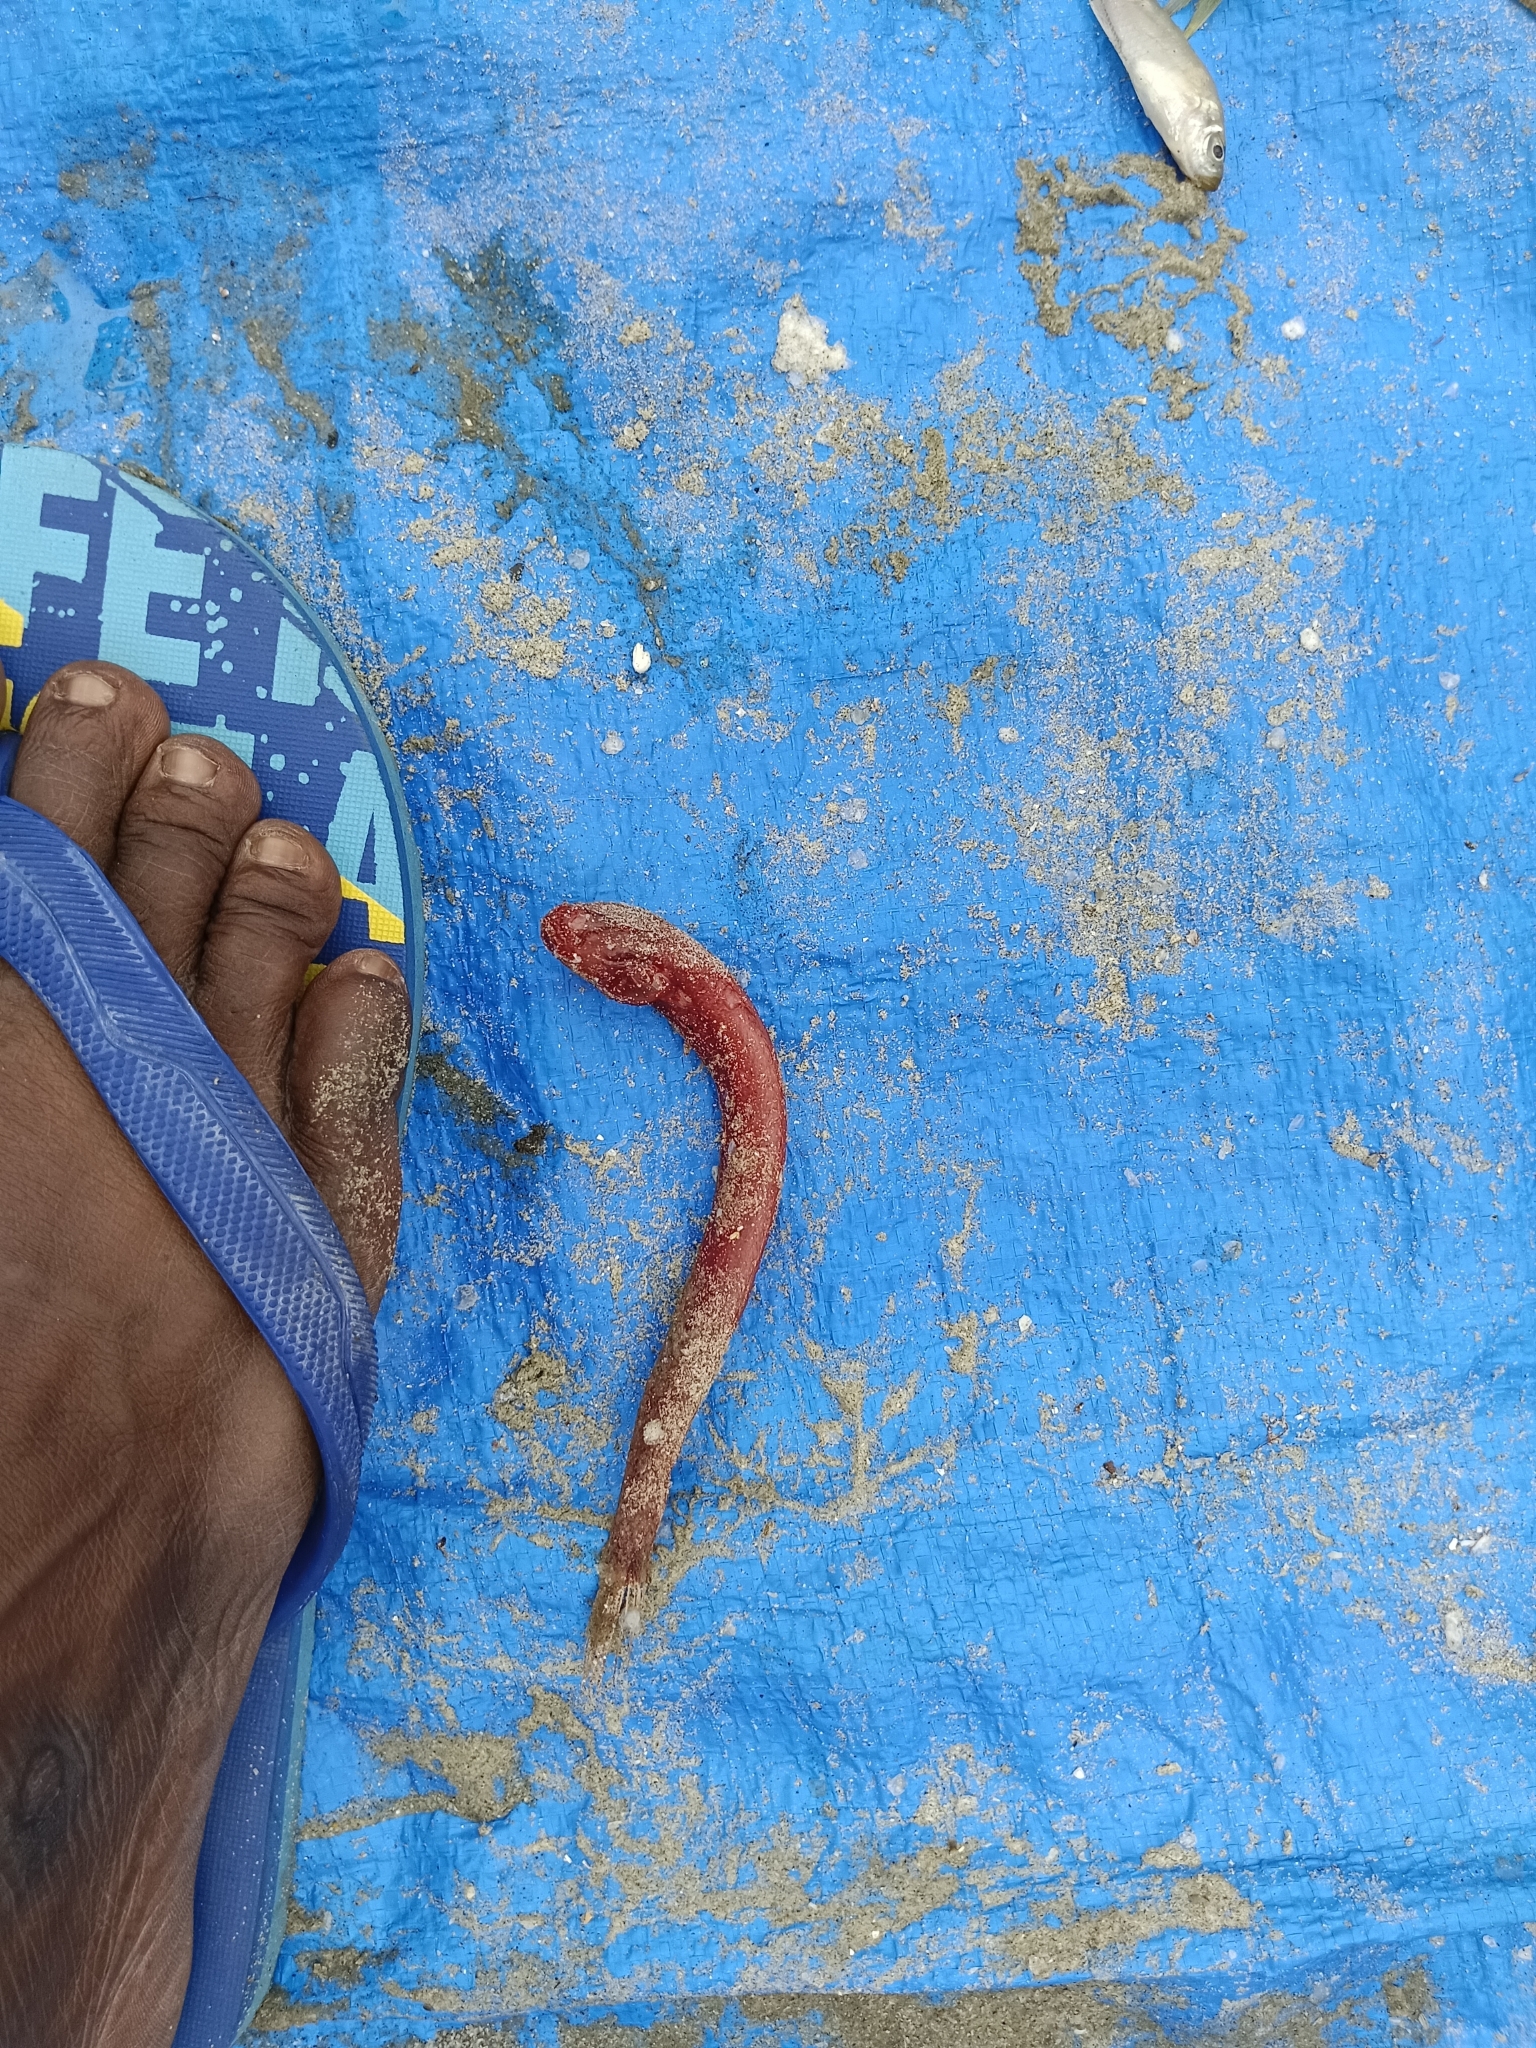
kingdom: Animalia
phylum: Chordata
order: Perciformes
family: Gobiidae
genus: Trypauchen
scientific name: Trypauchen vagina
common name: Burrowing goby
